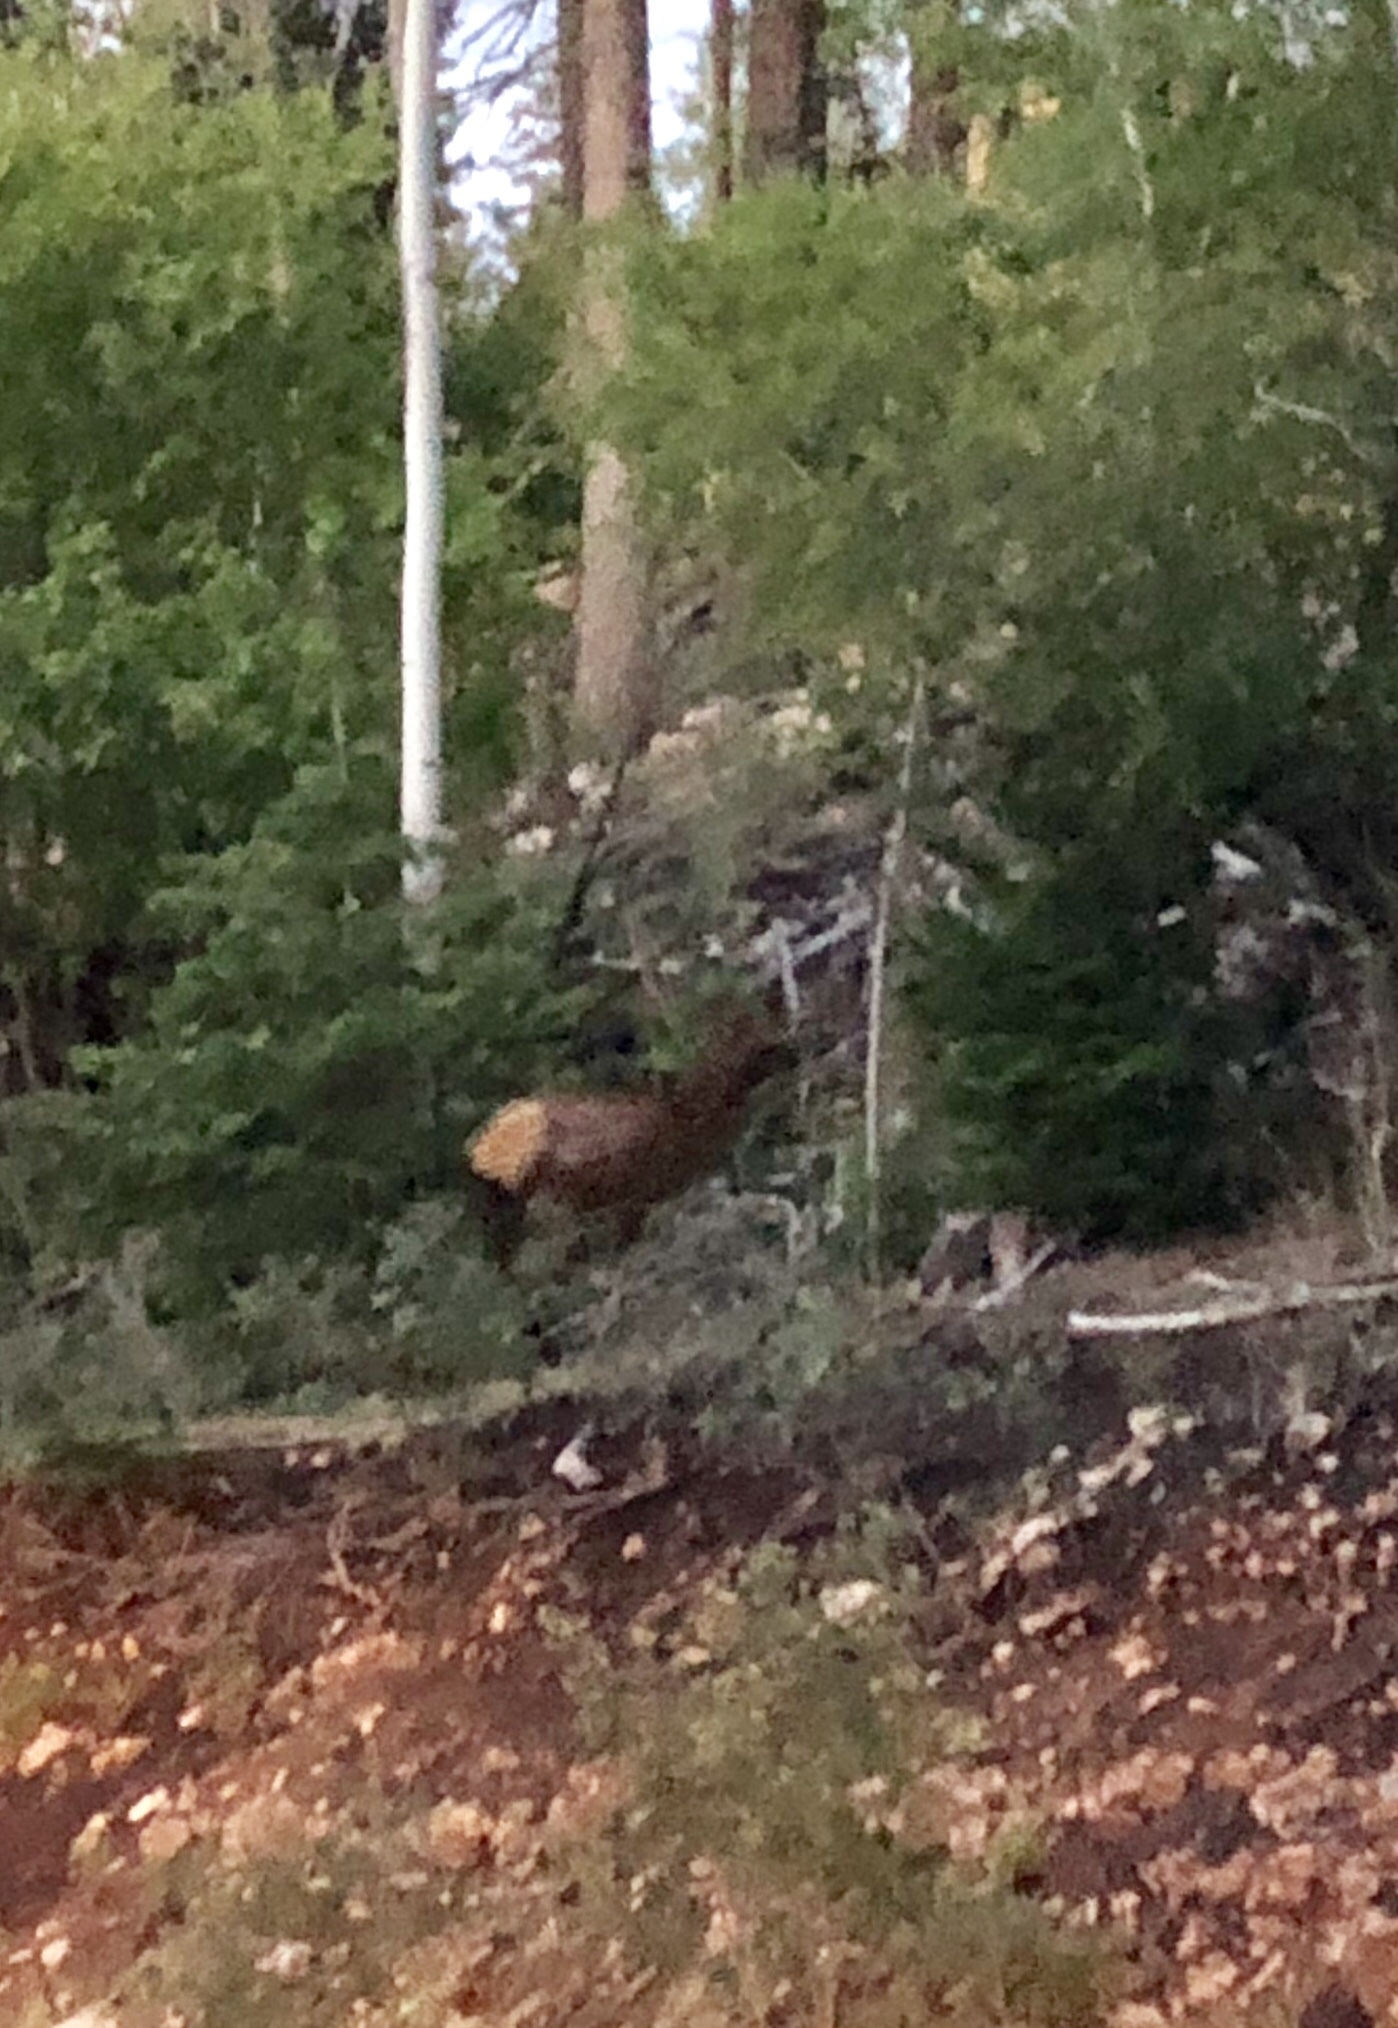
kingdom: Animalia
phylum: Chordata
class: Mammalia
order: Artiodactyla
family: Cervidae
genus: Cervus
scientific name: Cervus elaphus
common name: Red deer
